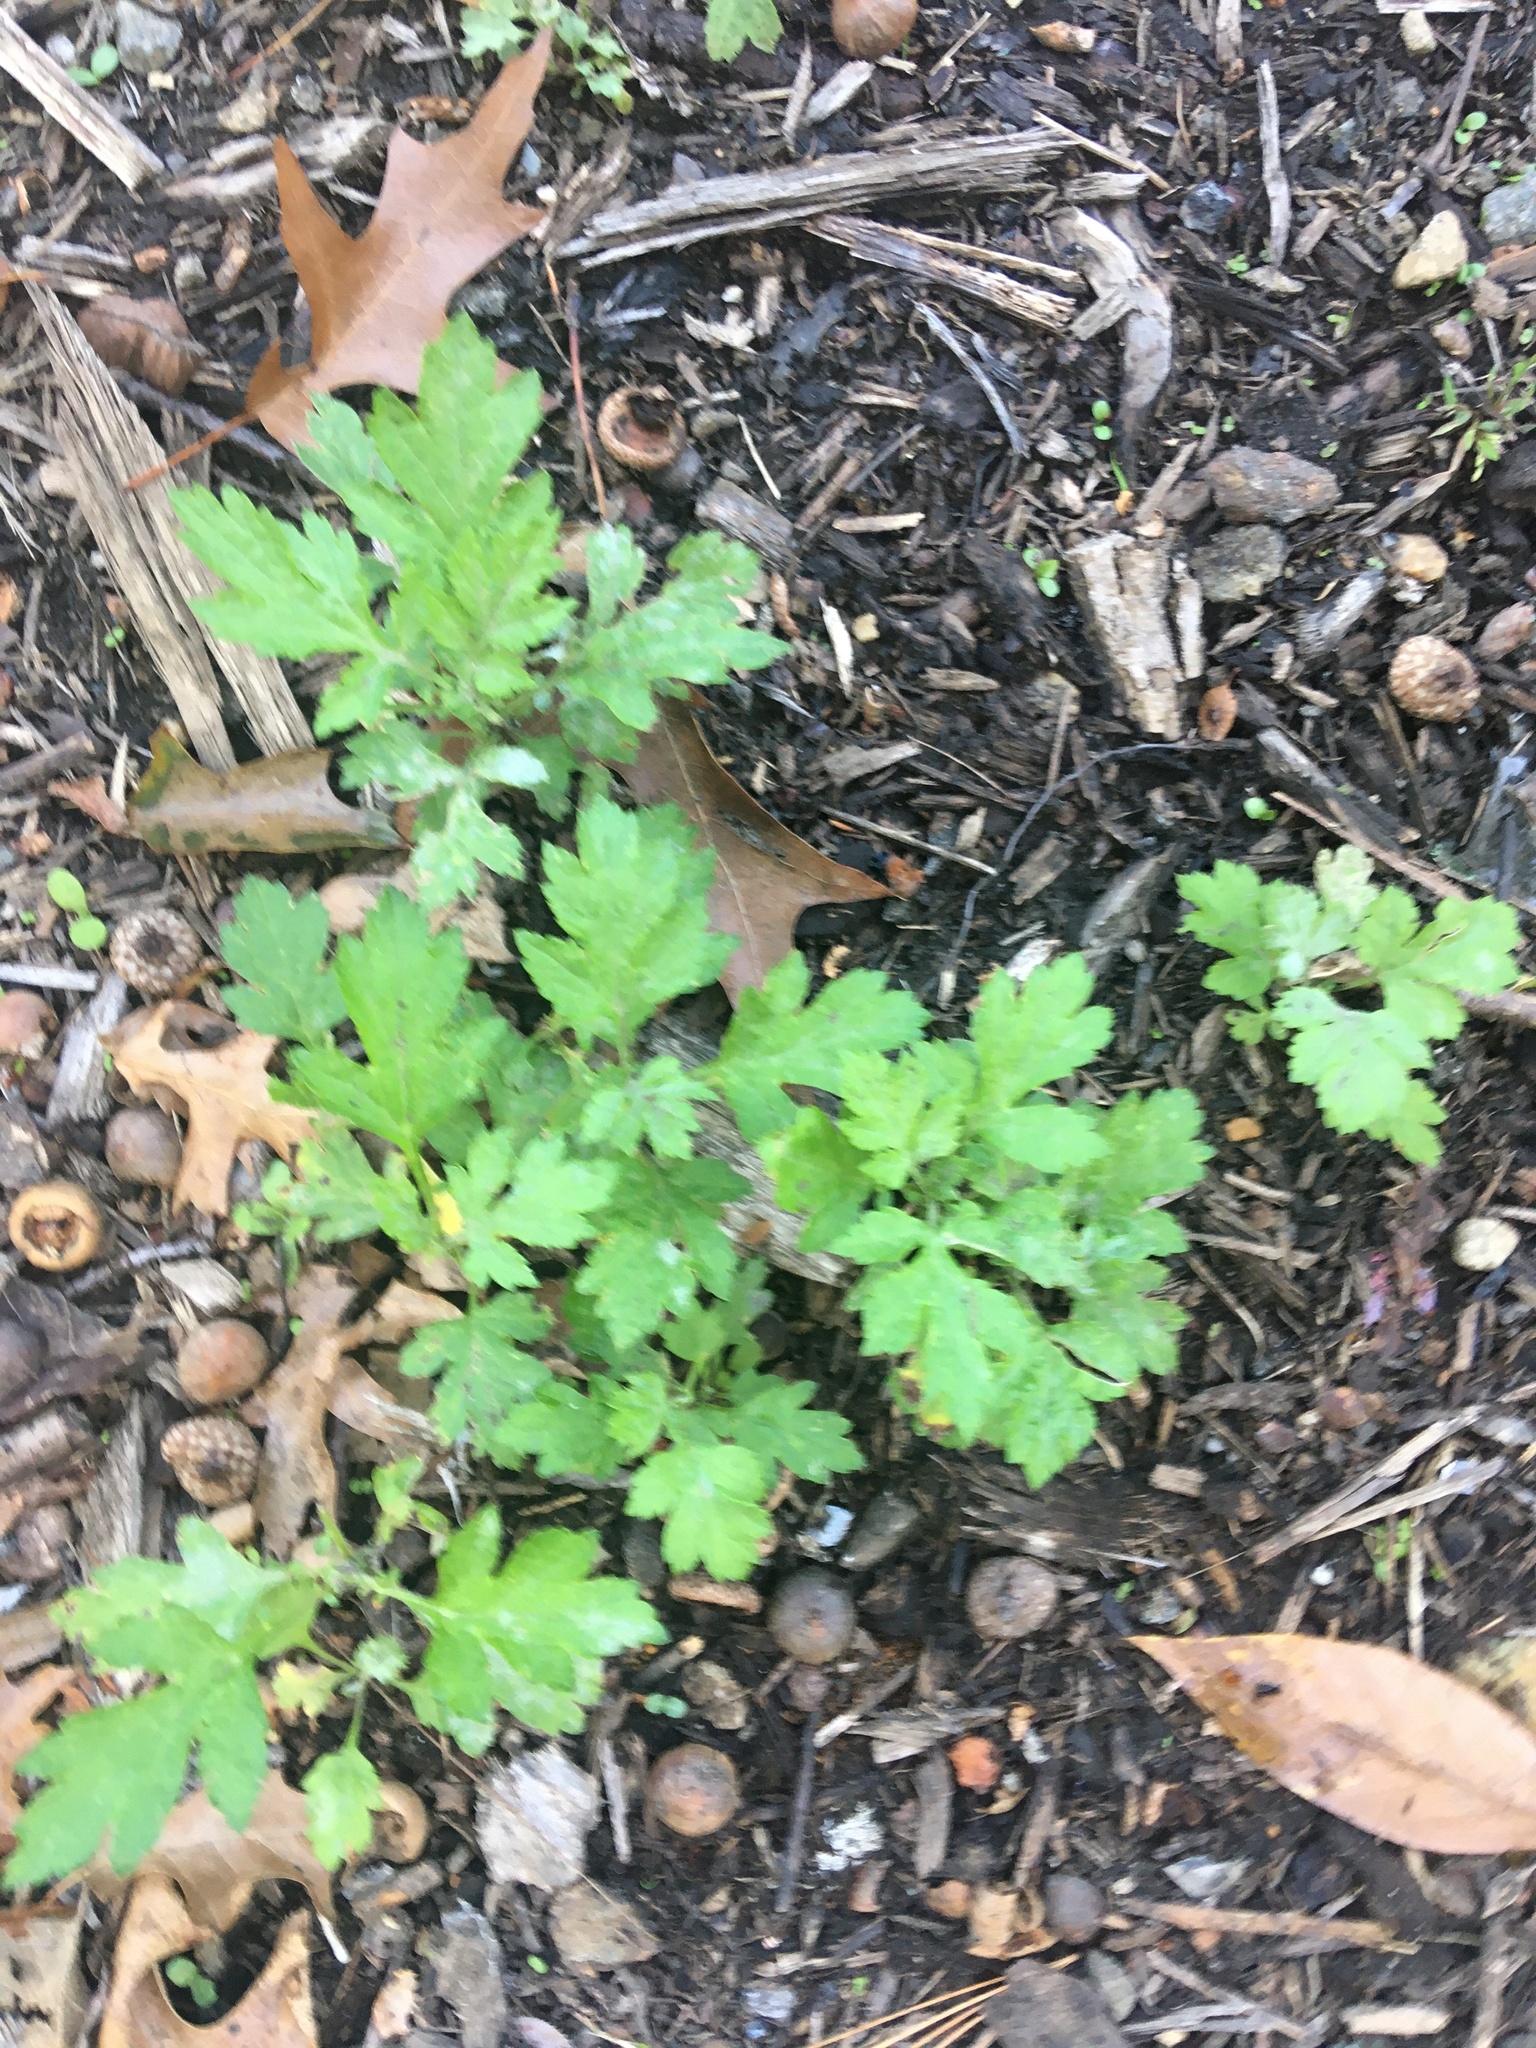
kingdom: Plantae
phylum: Tracheophyta
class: Magnoliopsida
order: Asterales
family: Asteraceae
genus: Artemisia
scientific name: Artemisia vulgaris
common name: Mugwort
